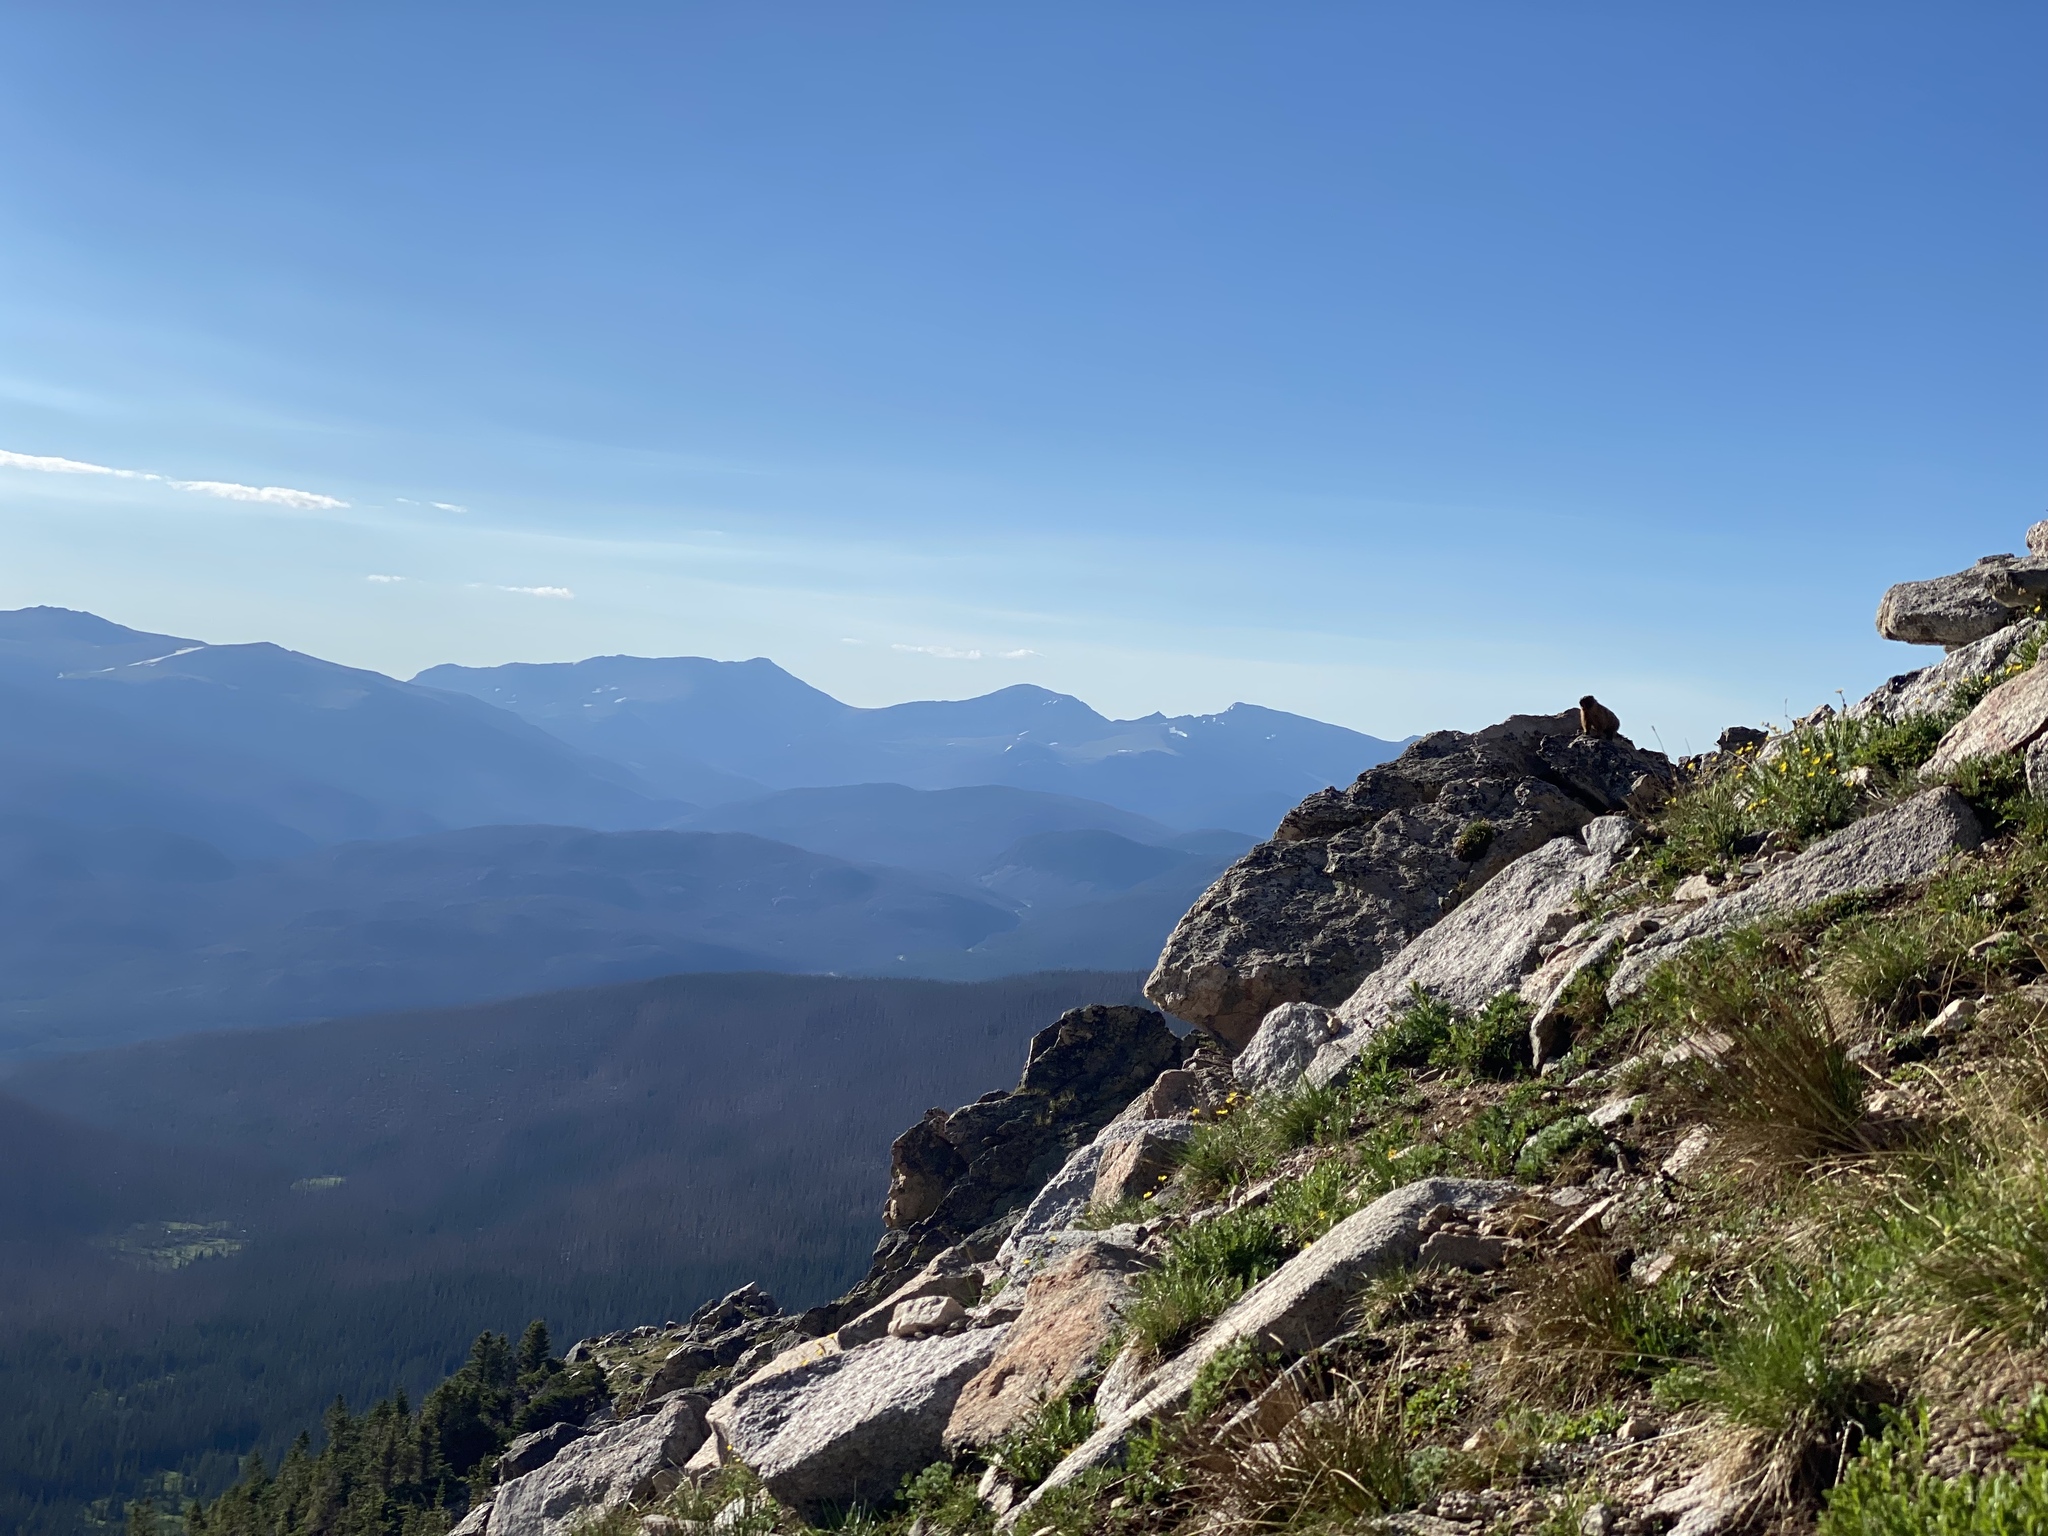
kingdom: Animalia
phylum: Chordata
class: Mammalia
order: Rodentia
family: Sciuridae
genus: Marmota
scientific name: Marmota flaviventris
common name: Yellow-bellied marmot
